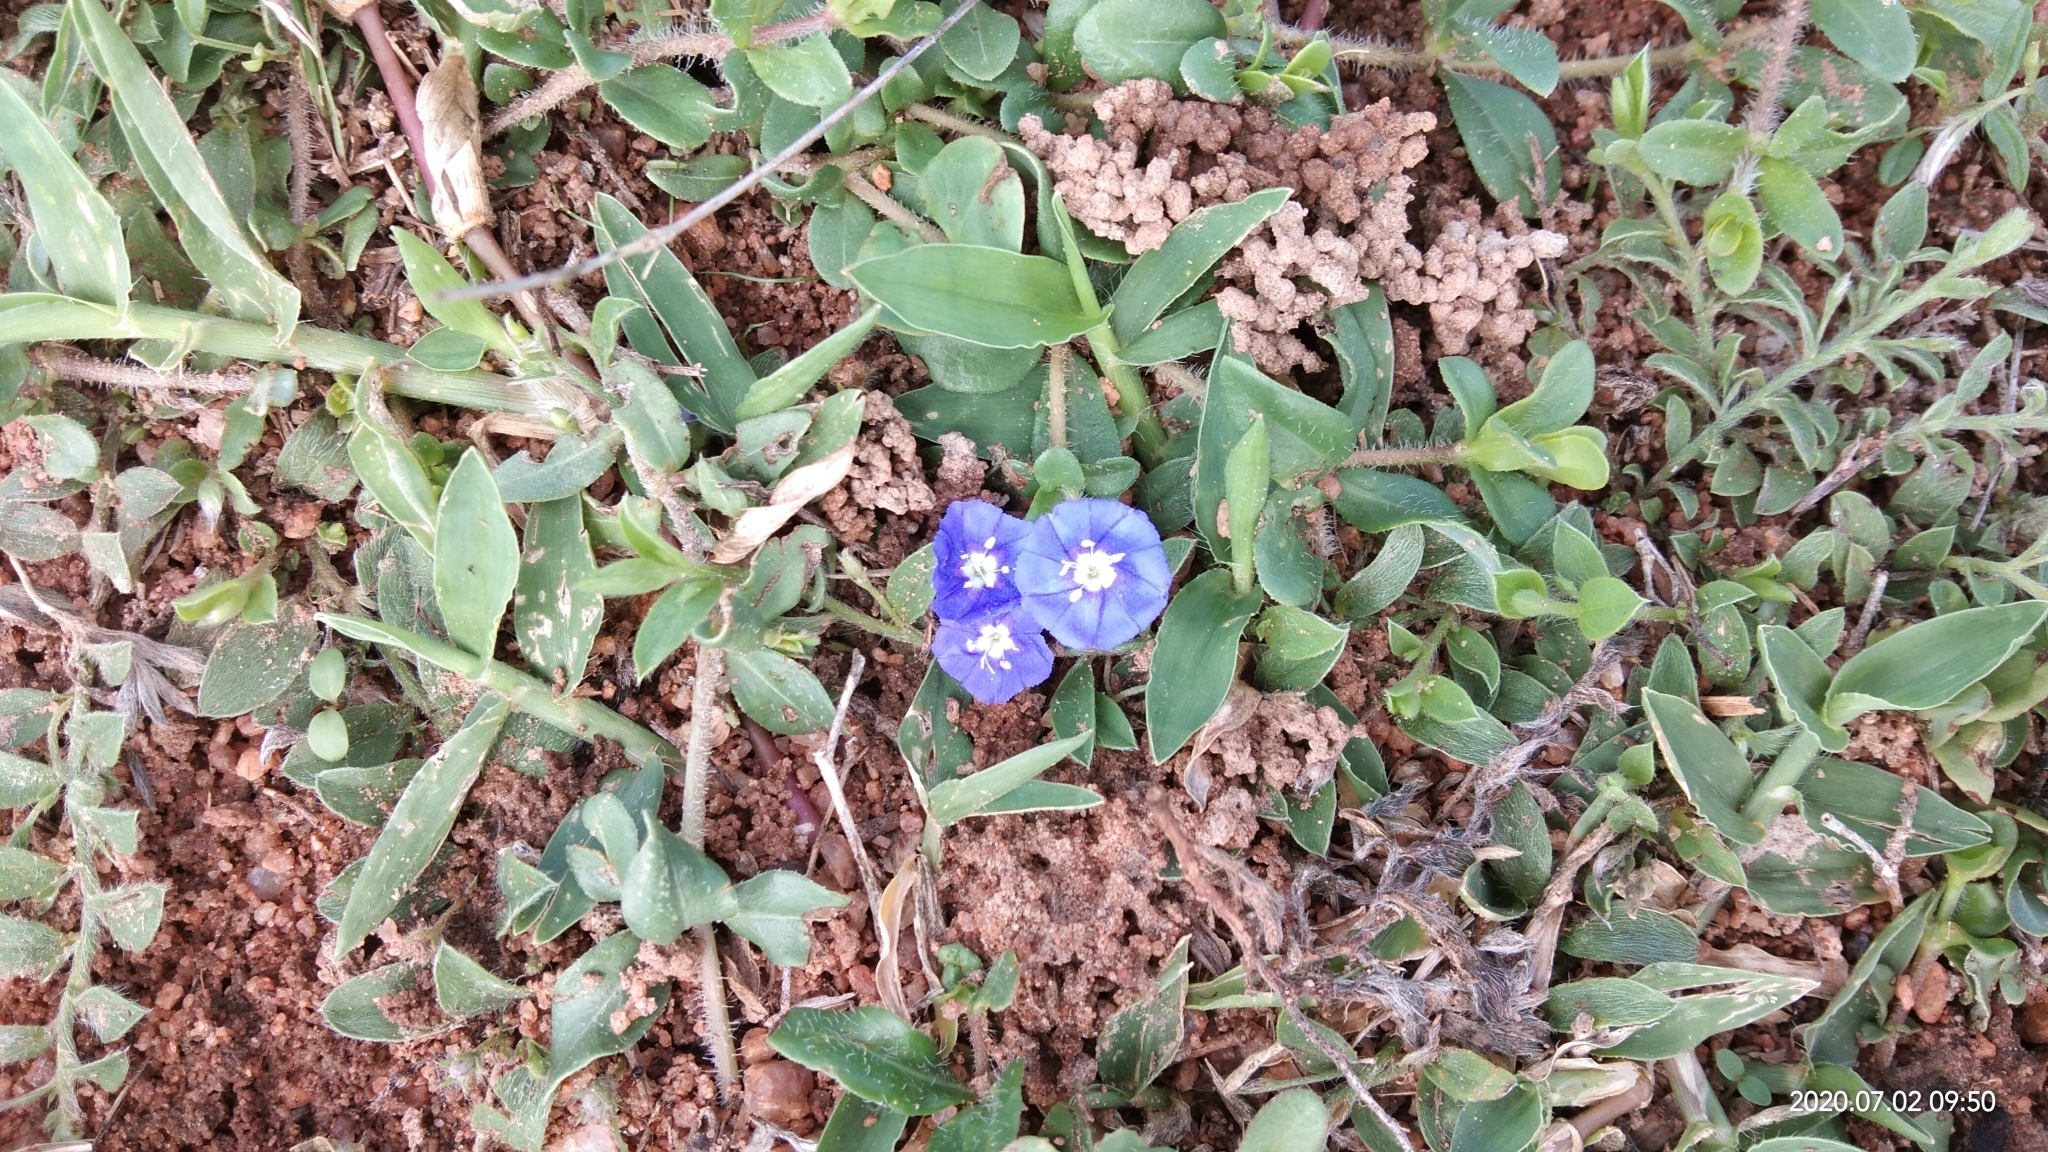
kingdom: Plantae
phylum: Tracheophyta
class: Magnoliopsida
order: Solanales
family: Convolvulaceae
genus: Evolvulus
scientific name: Evolvulus alsinoides
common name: Slender dwarf morning-glory
